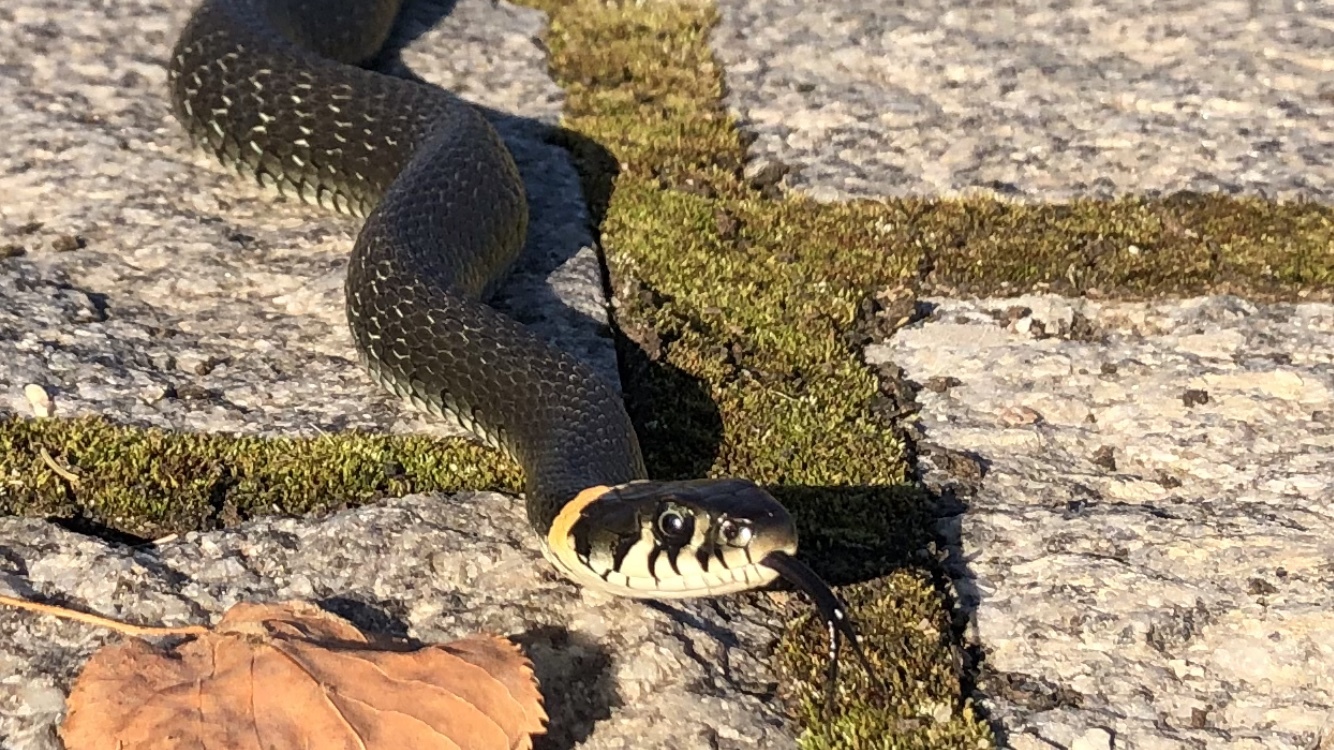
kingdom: Animalia
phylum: Chordata
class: Squamata
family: Colubridae
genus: Natrix
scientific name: Natrix natrix
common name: Grass snake
